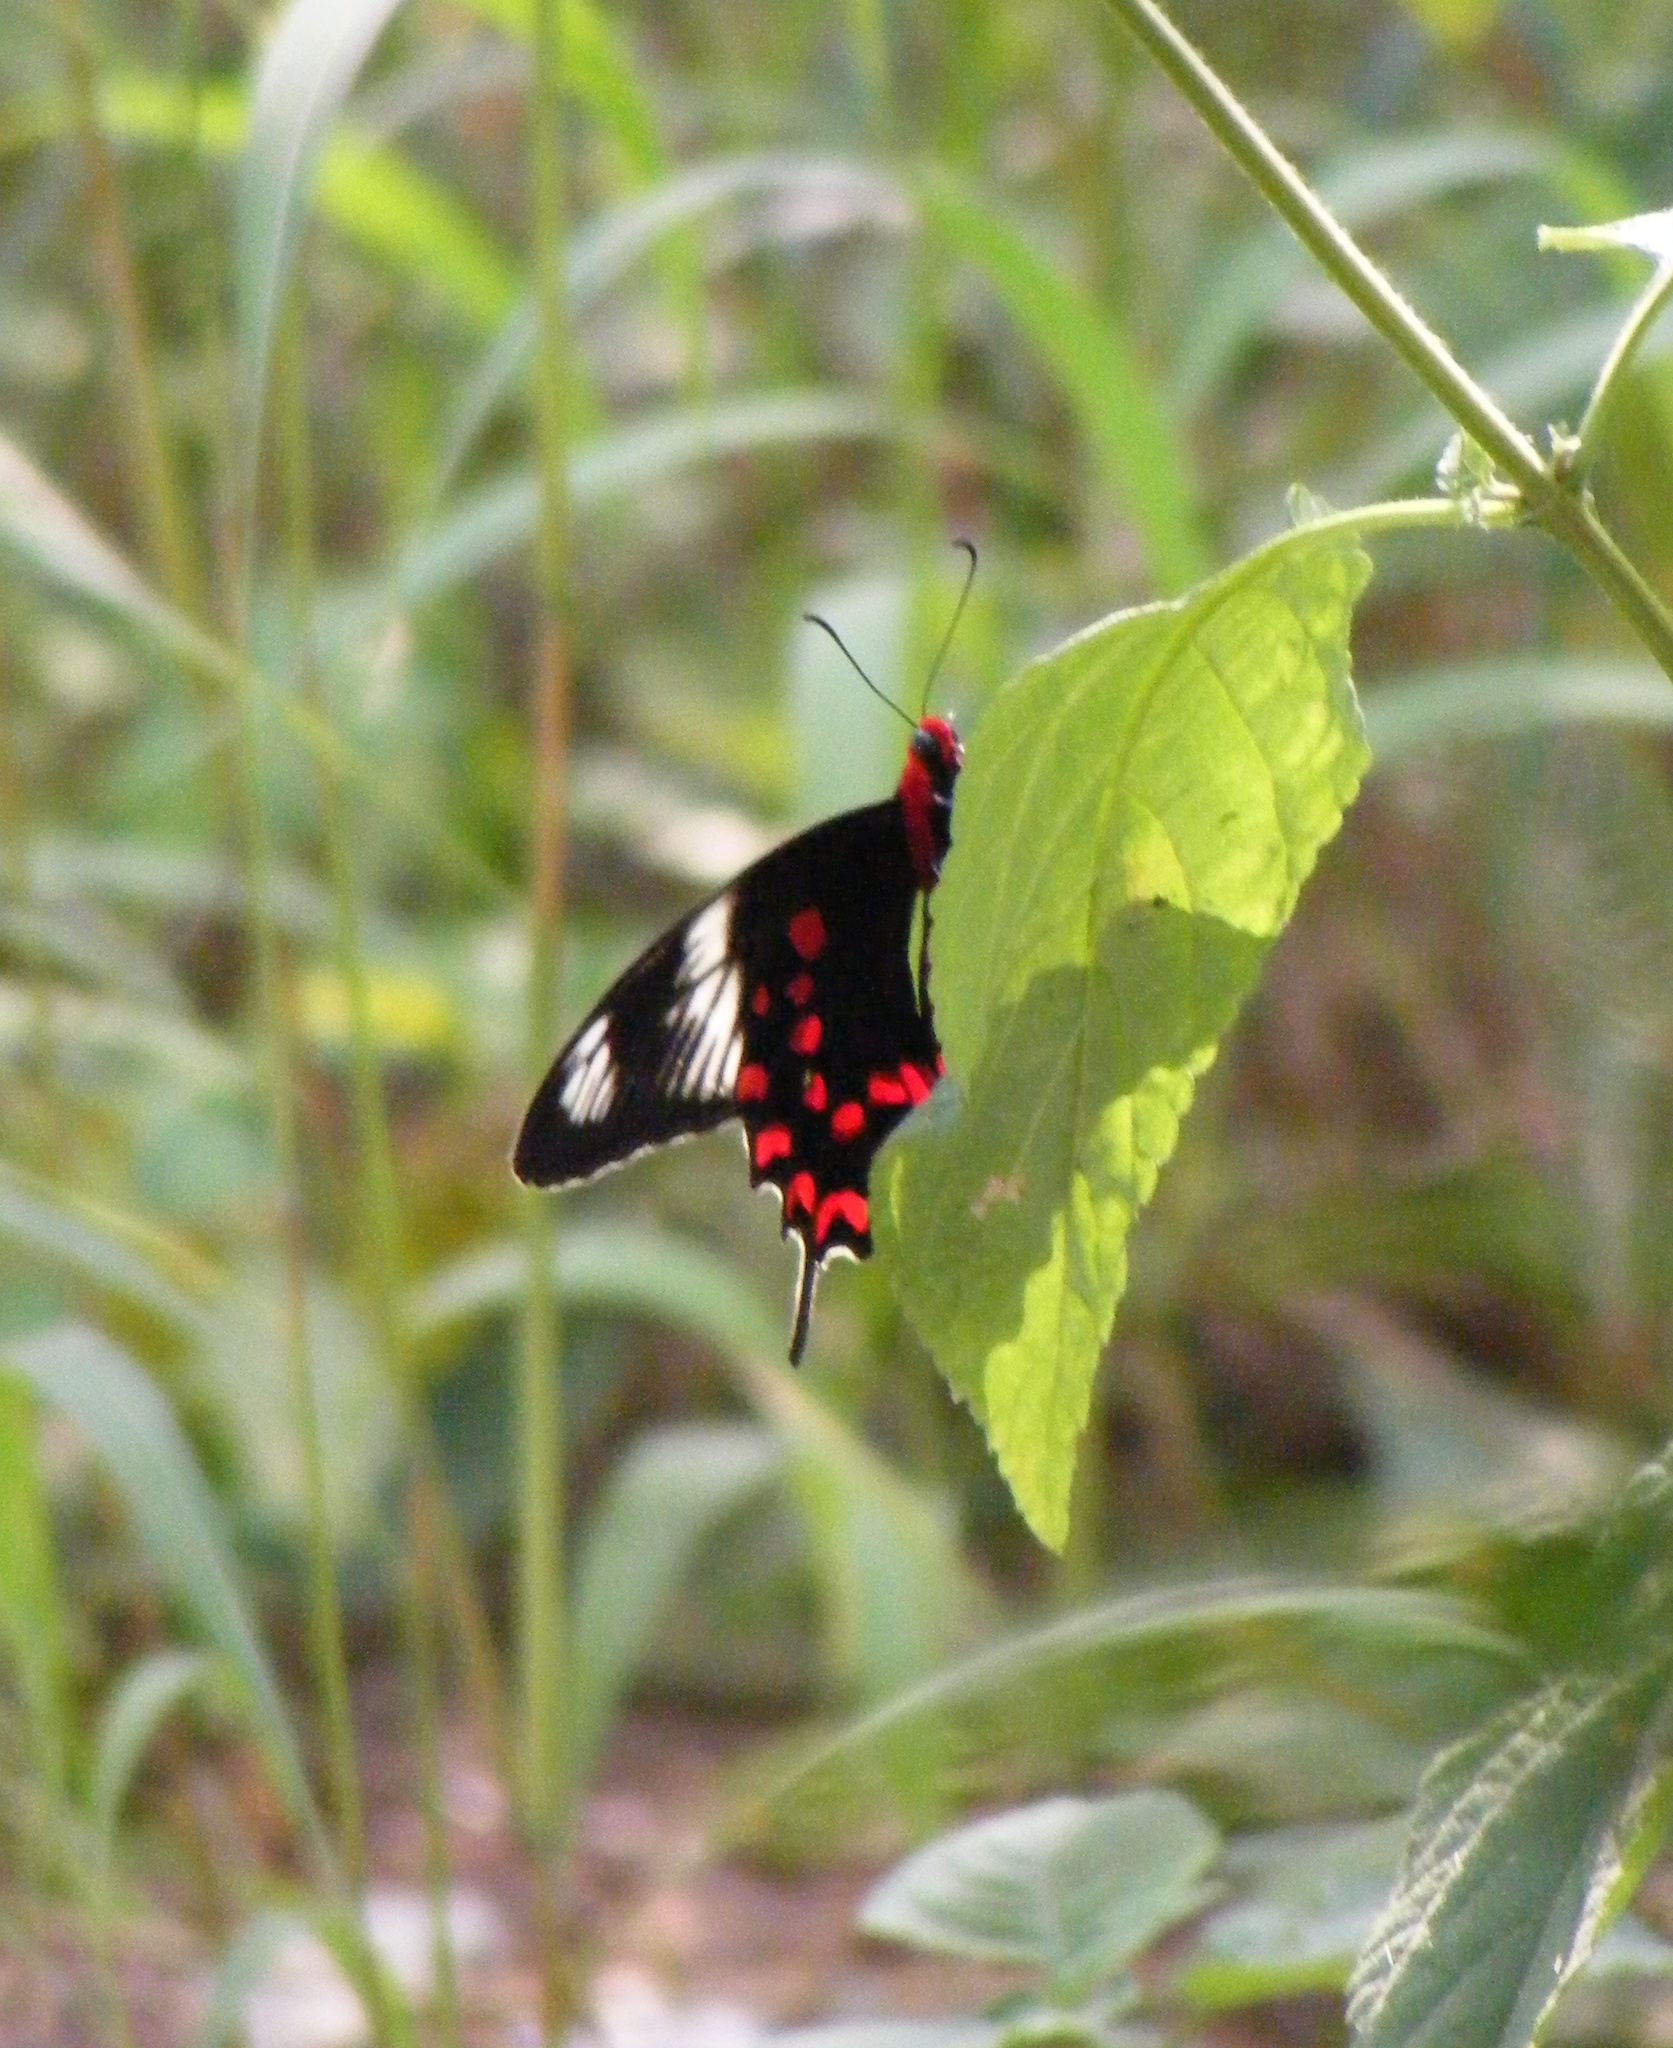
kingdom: Animalia
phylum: Arthropoda
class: Insecta
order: Lepidoptera
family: Papilionidae
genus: Pachliopta
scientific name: Pachliopta hector
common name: Crimson rose
